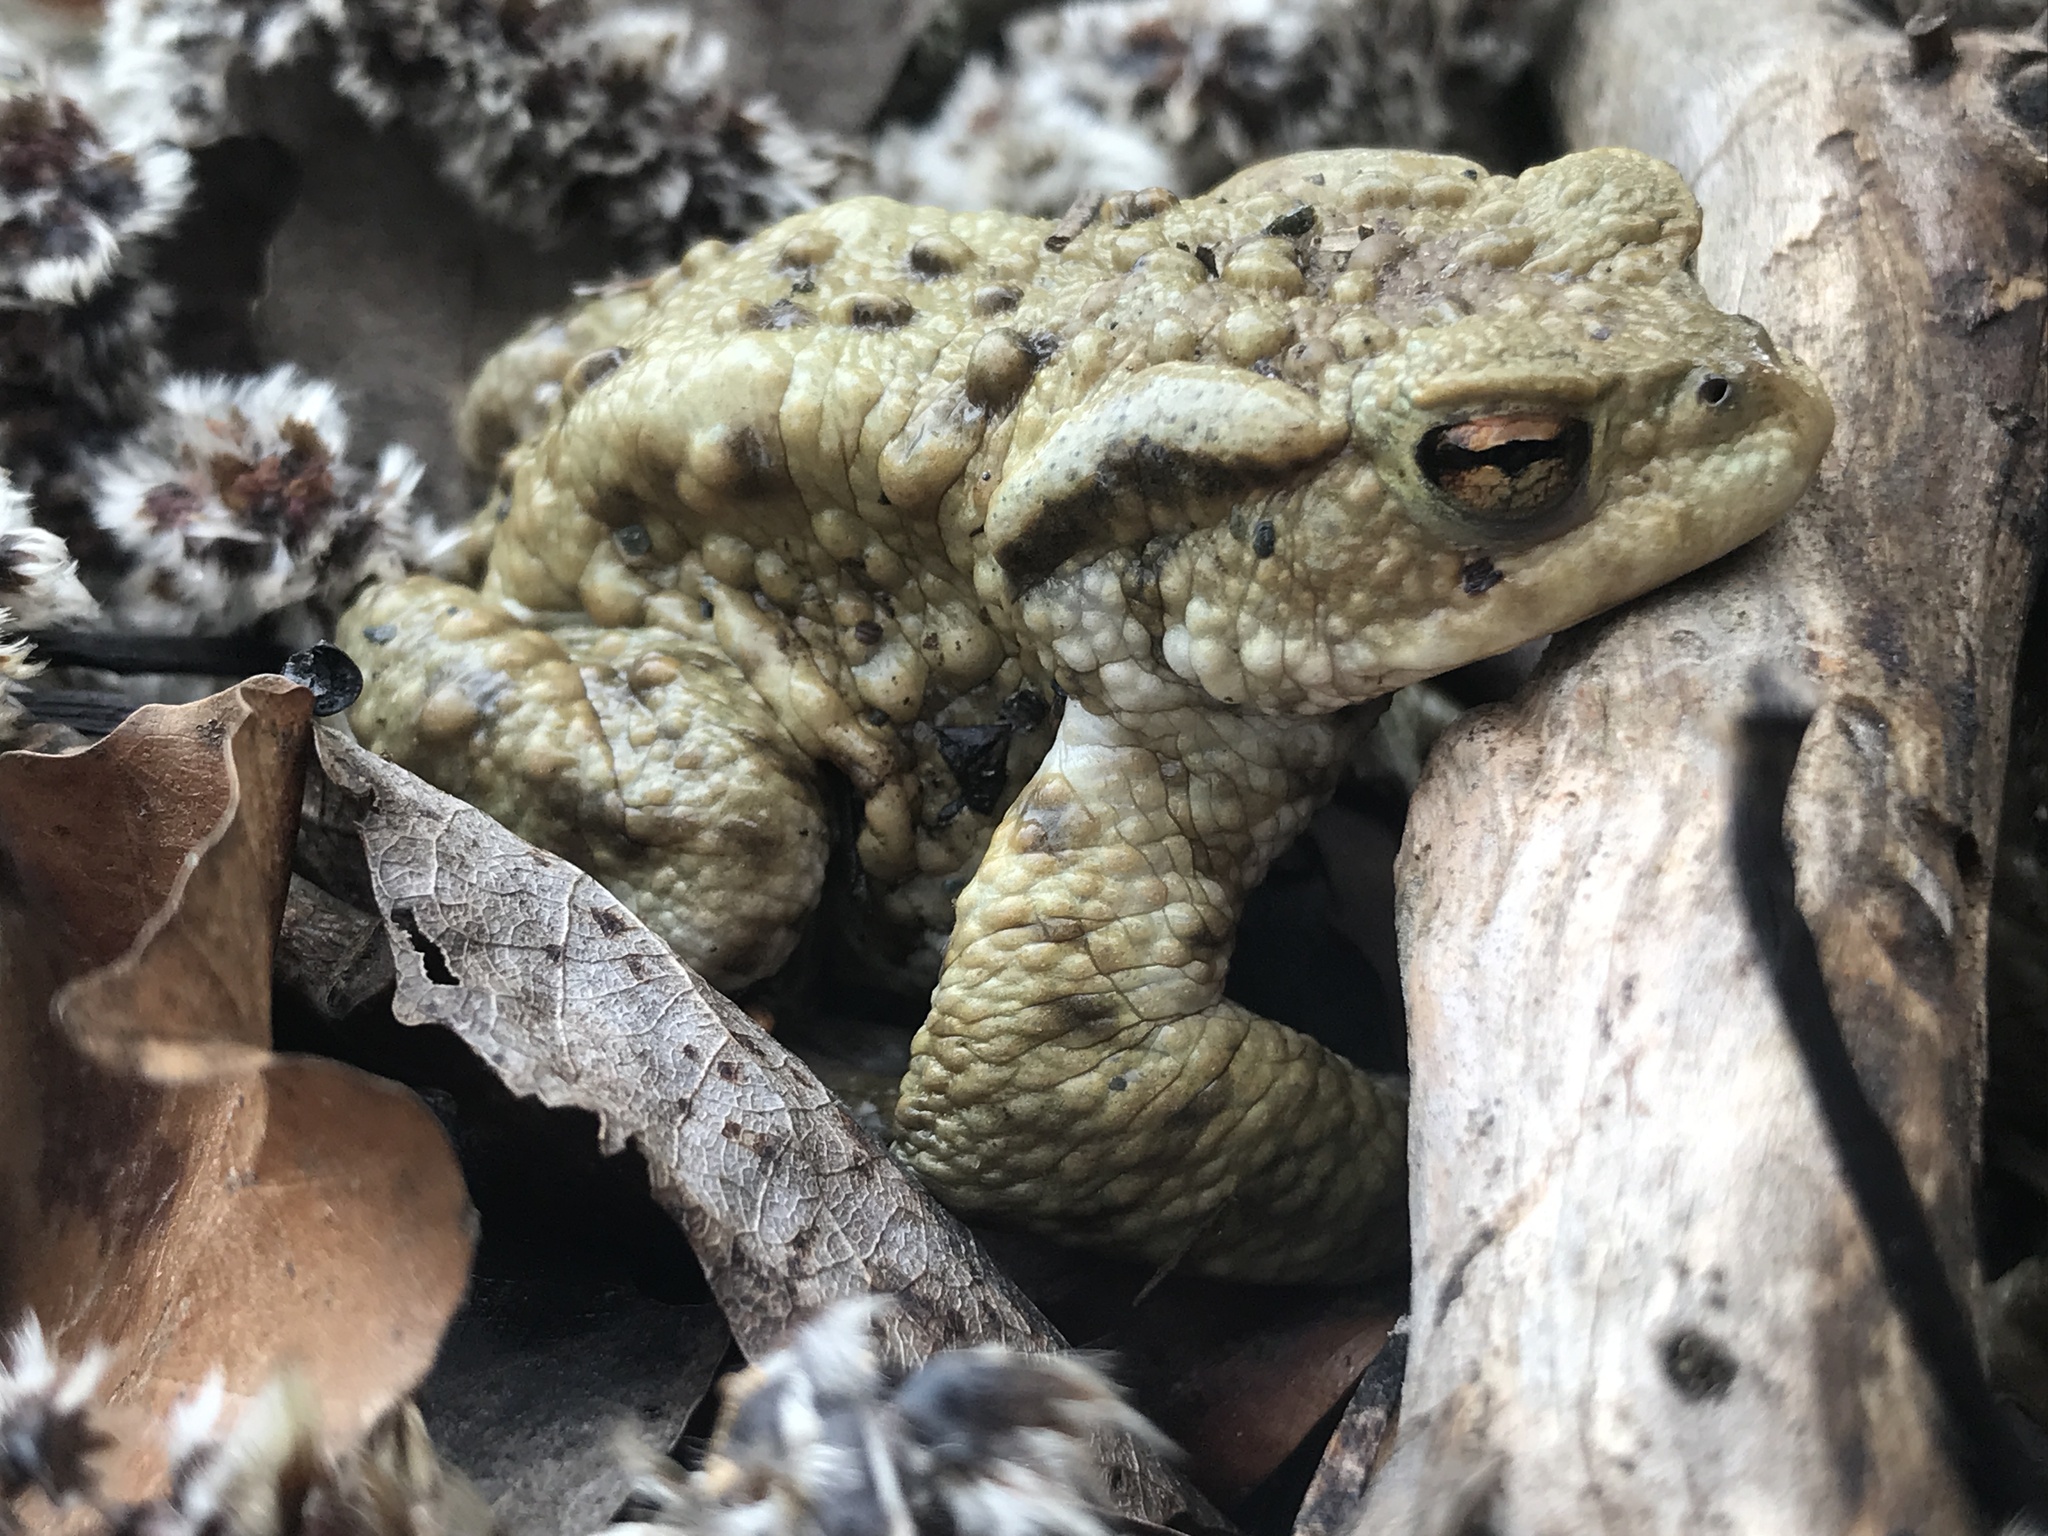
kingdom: Animalia
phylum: Chordata
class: Amphibia
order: Anura
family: Bufonidae
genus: Bufo
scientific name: Bufo bufo
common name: Common toad
